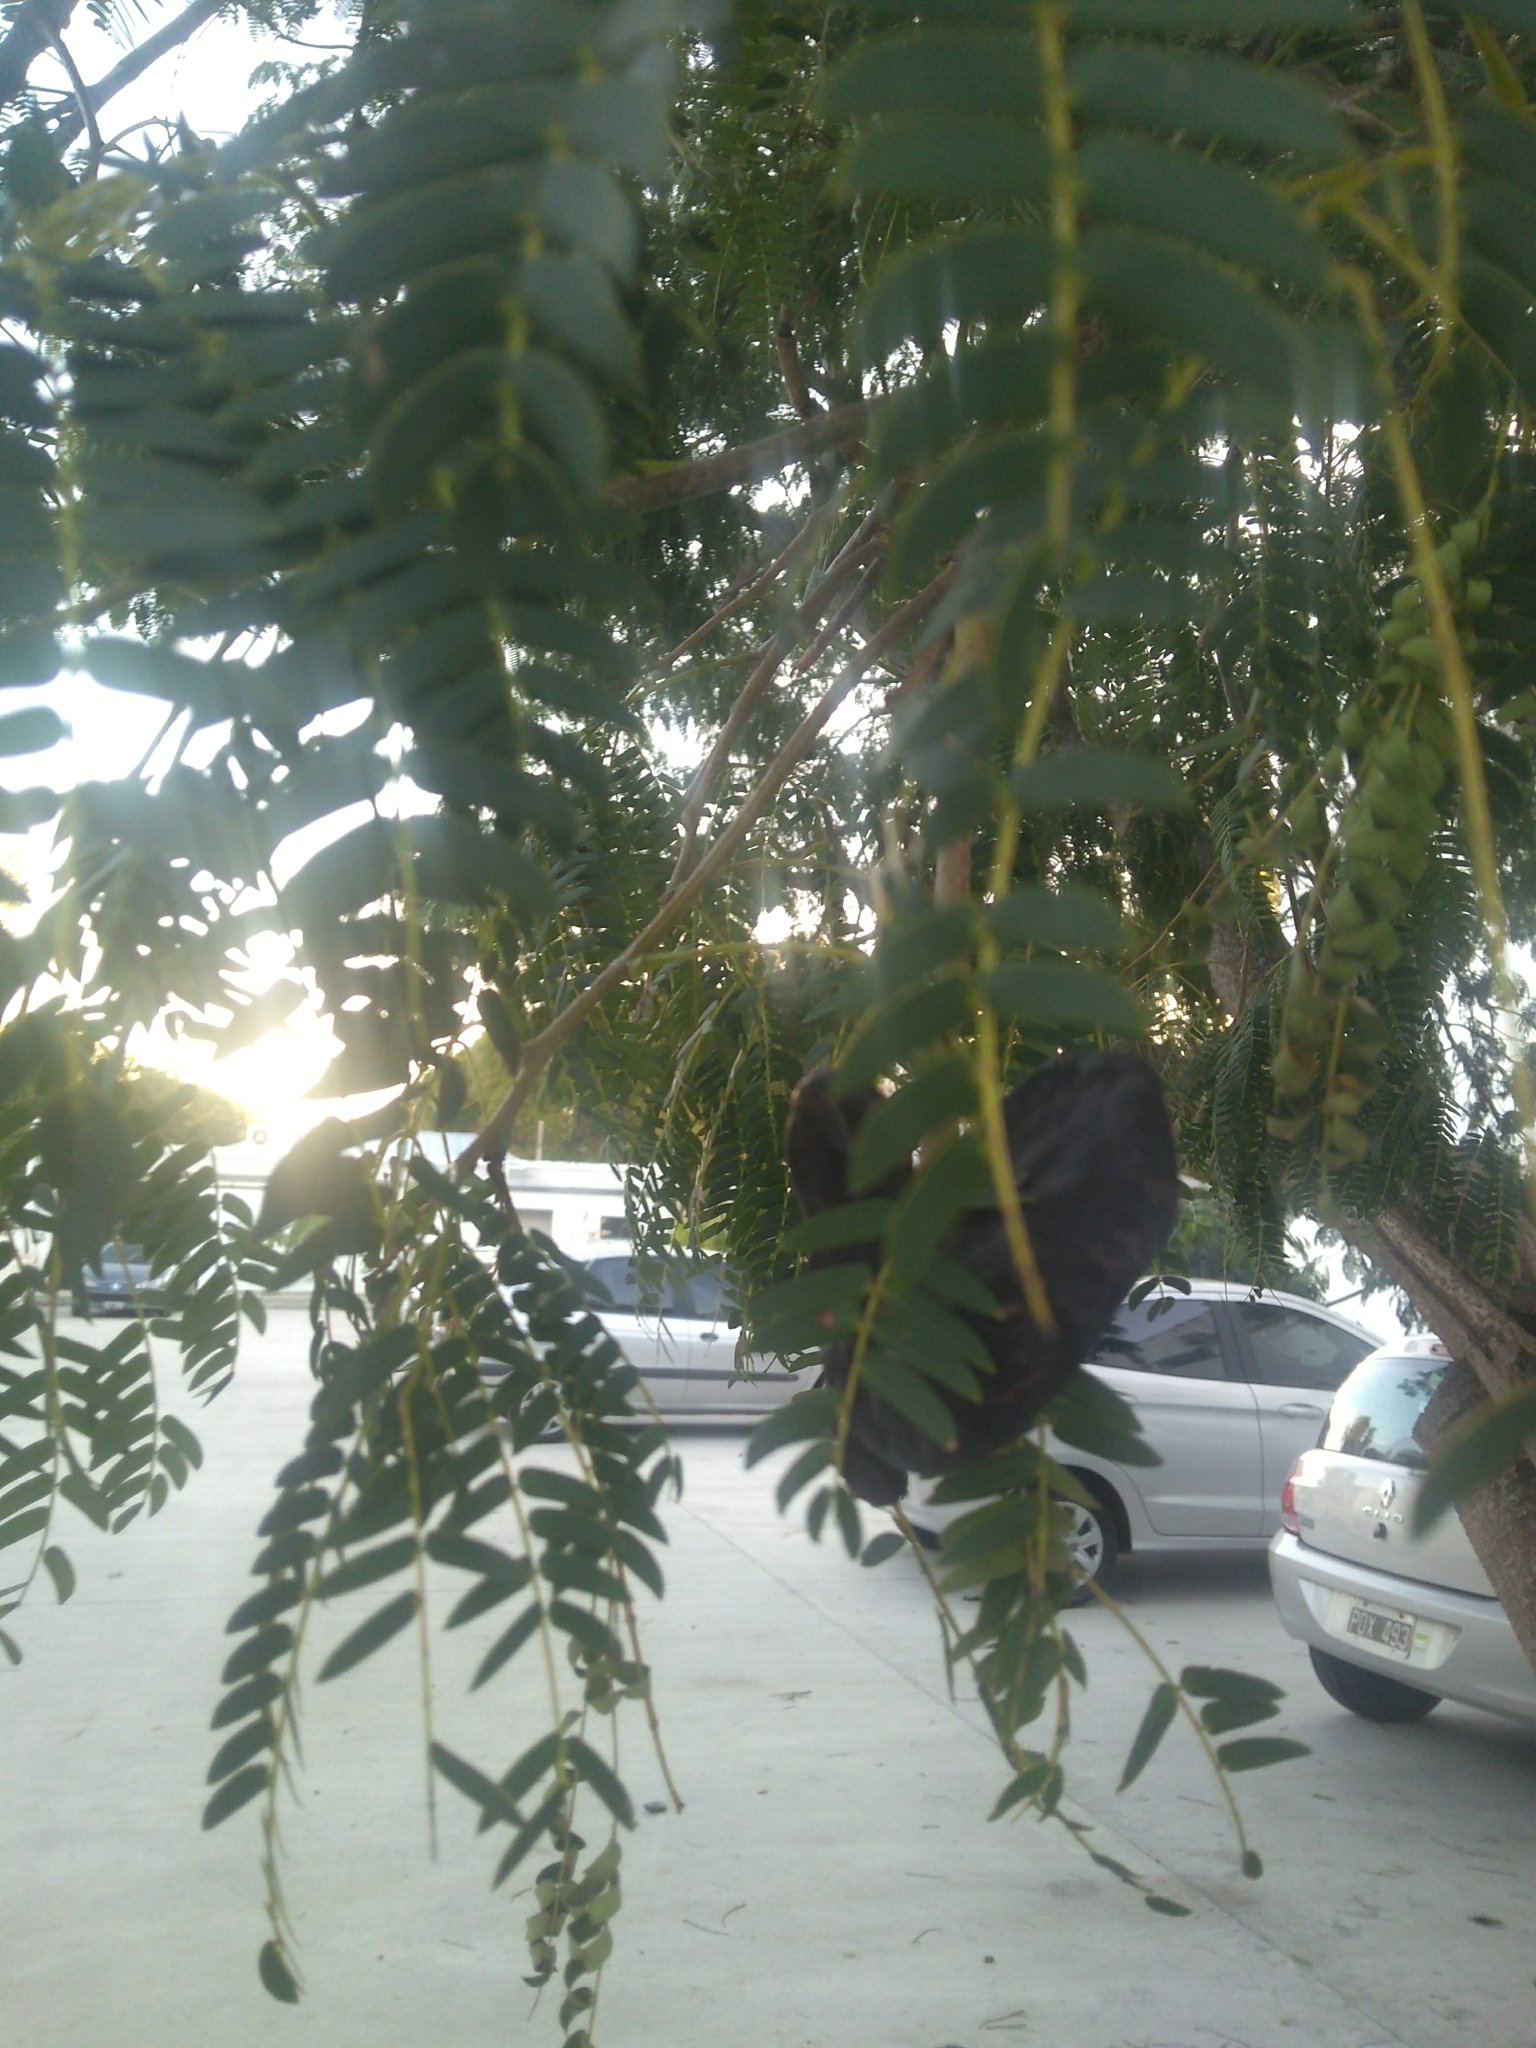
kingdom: Plantae
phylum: Tracheophyta
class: Magnoliopsida
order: Fabales
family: Fabaceae
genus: Enterolobium
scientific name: Enterolobium contortisiliquum
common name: Pacara earpod tree
